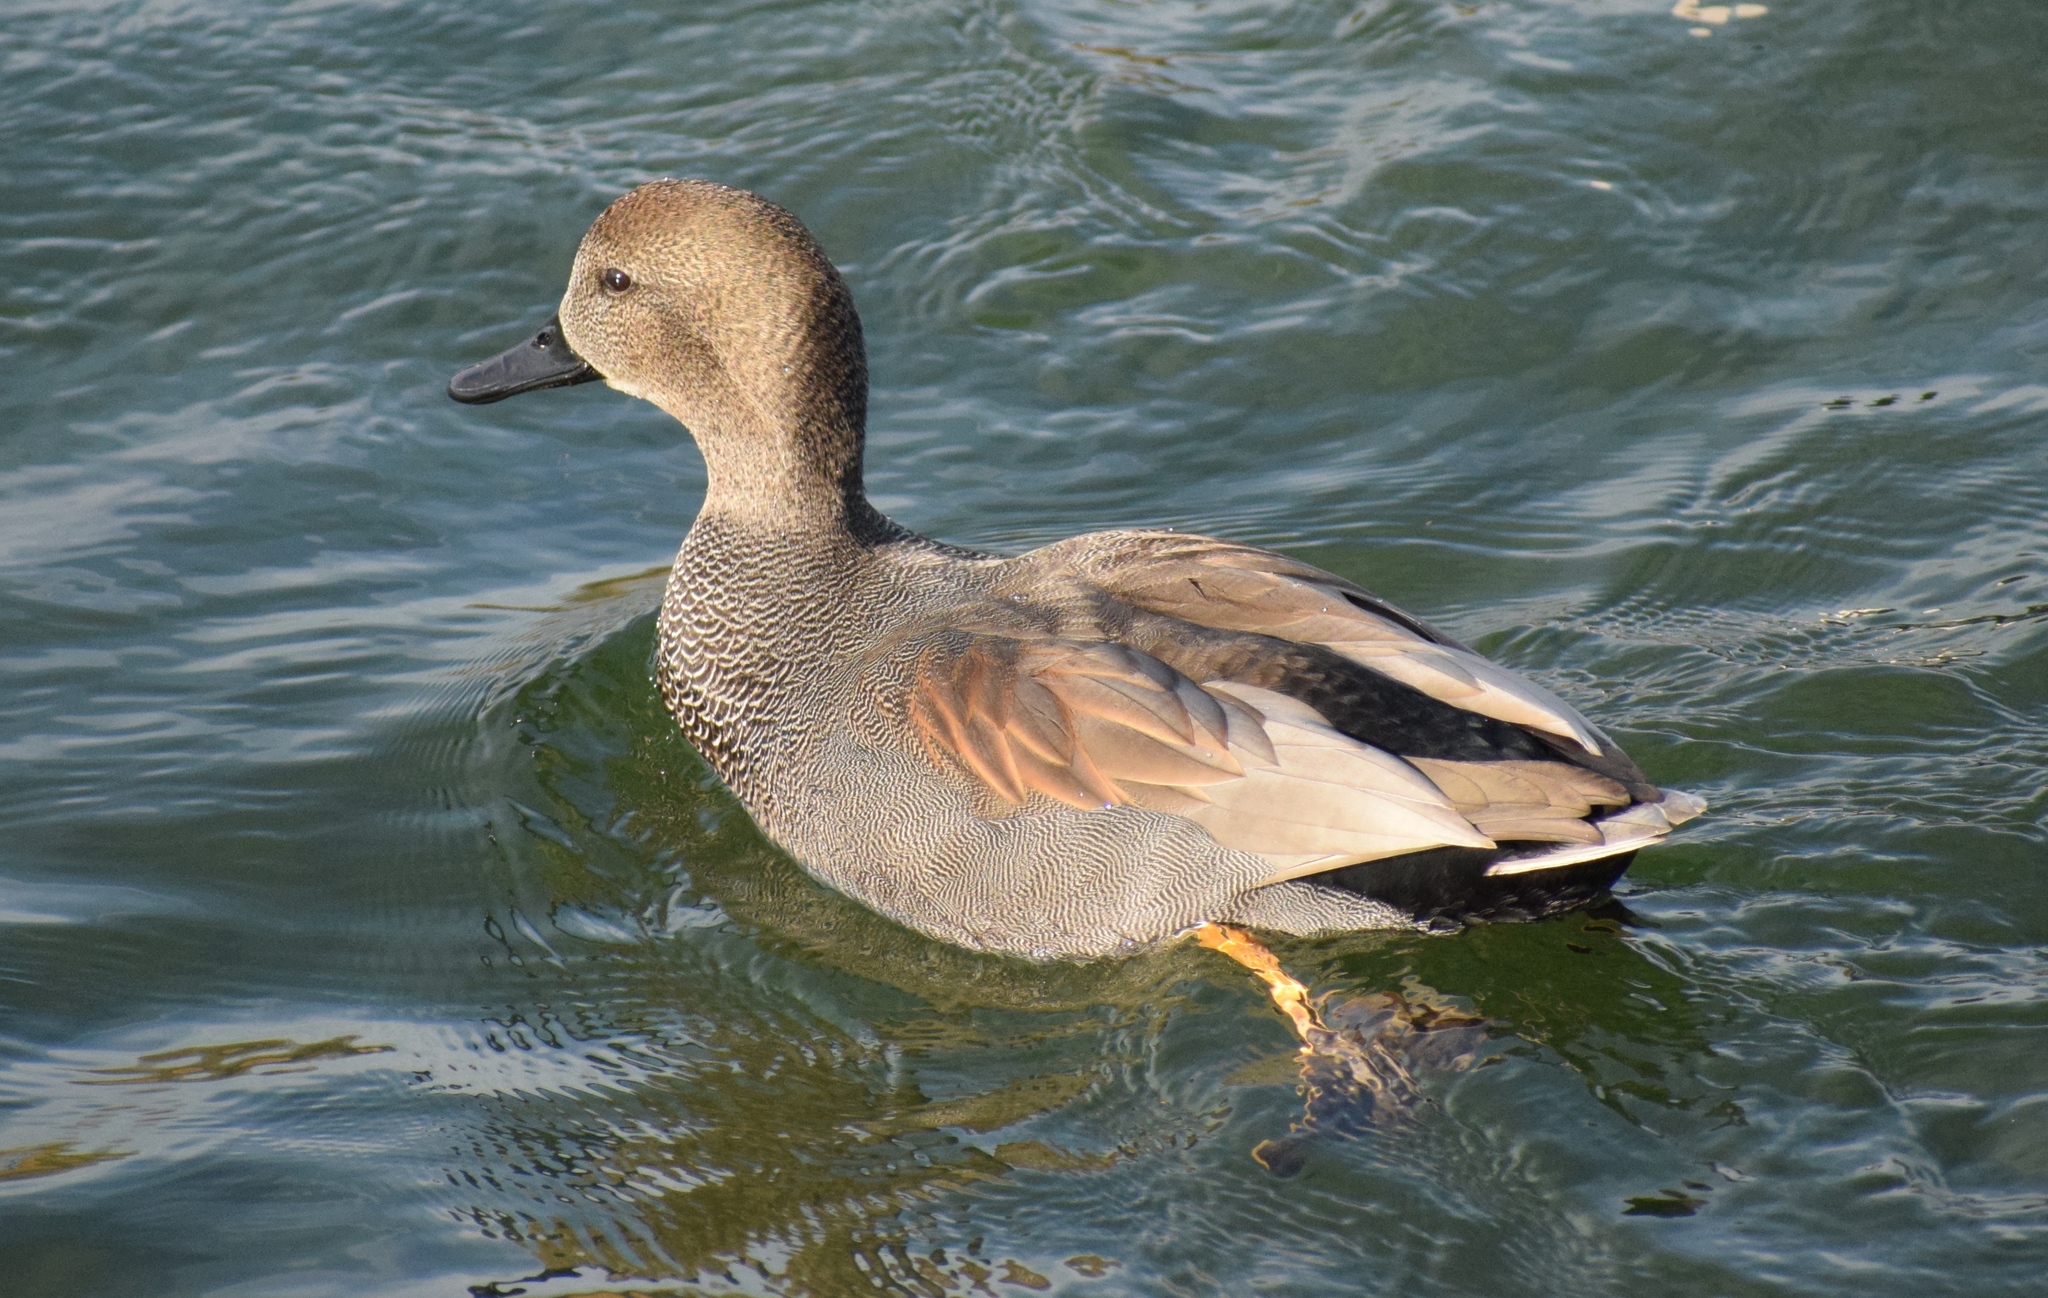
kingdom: Animalia
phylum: Chordata
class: Aves
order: Anseriformes
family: Anatidae
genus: Mareca
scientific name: Mareca strepera
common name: Gadwall
